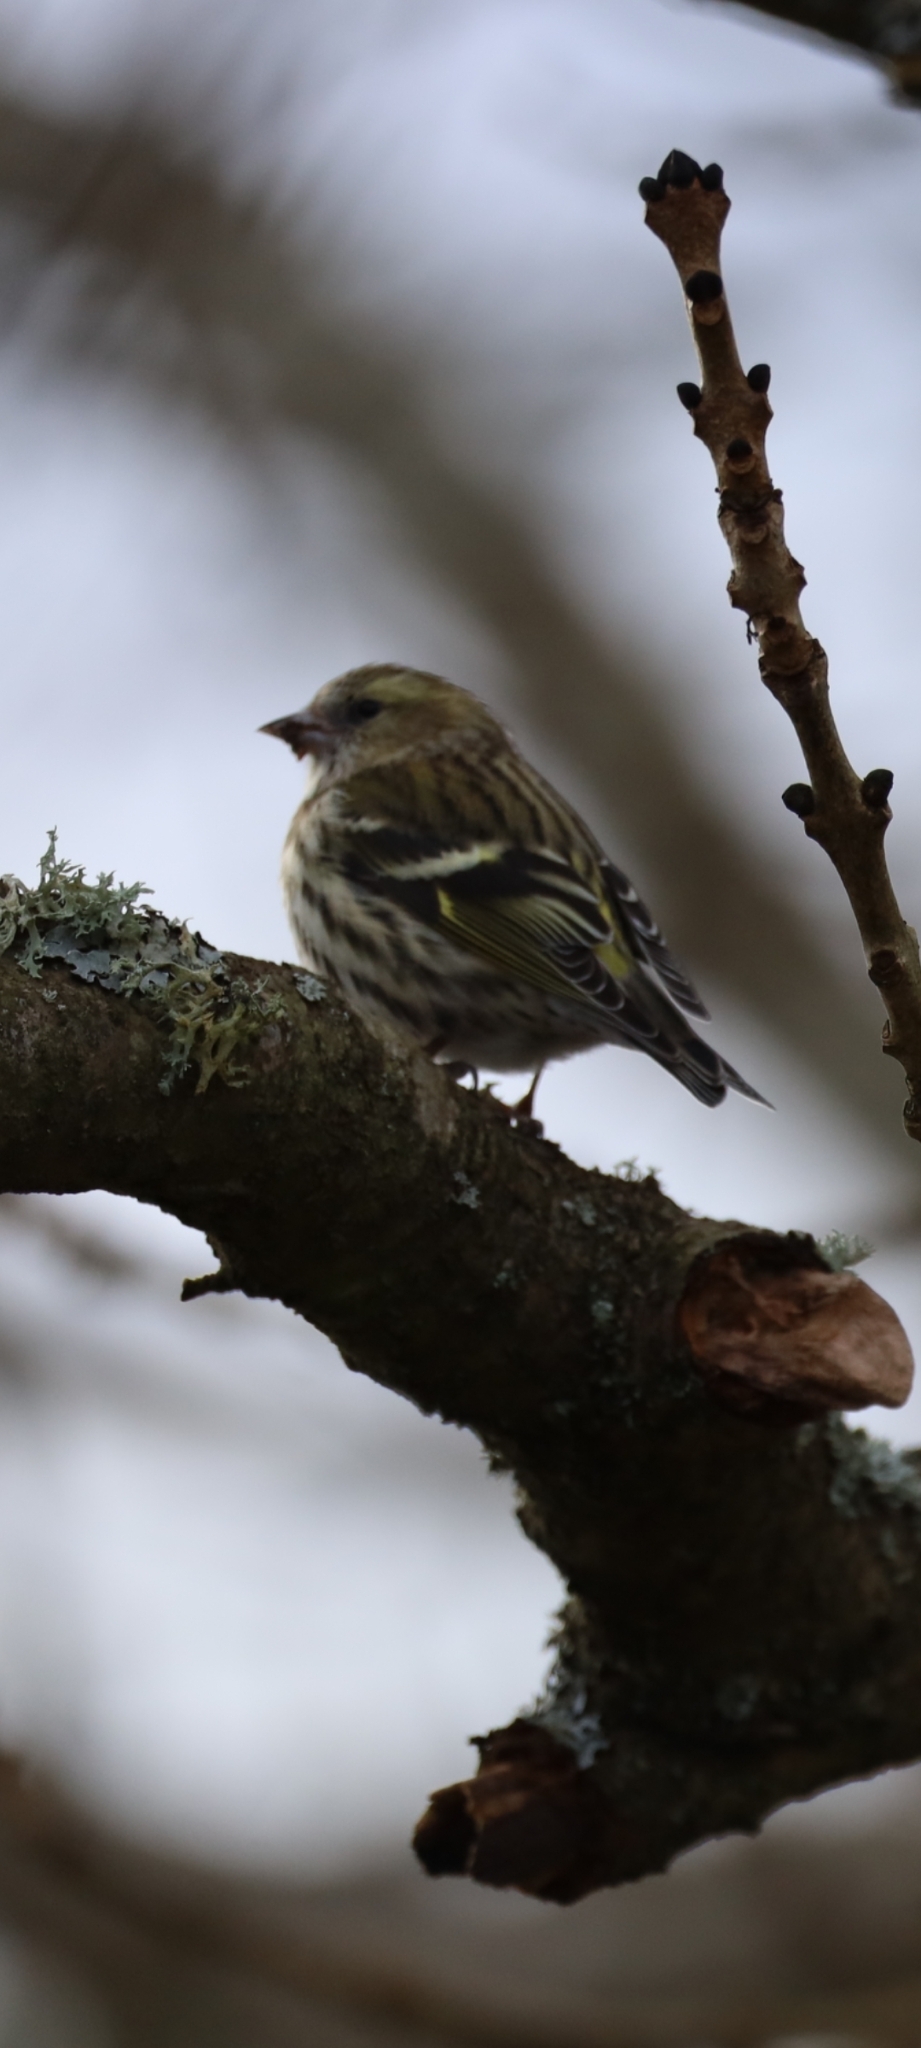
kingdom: Animalia
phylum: Chordata
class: Aves
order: Passeriformes
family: Fringillidae
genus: Spinus
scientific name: Spinus spinus
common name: Eurasian siskin
